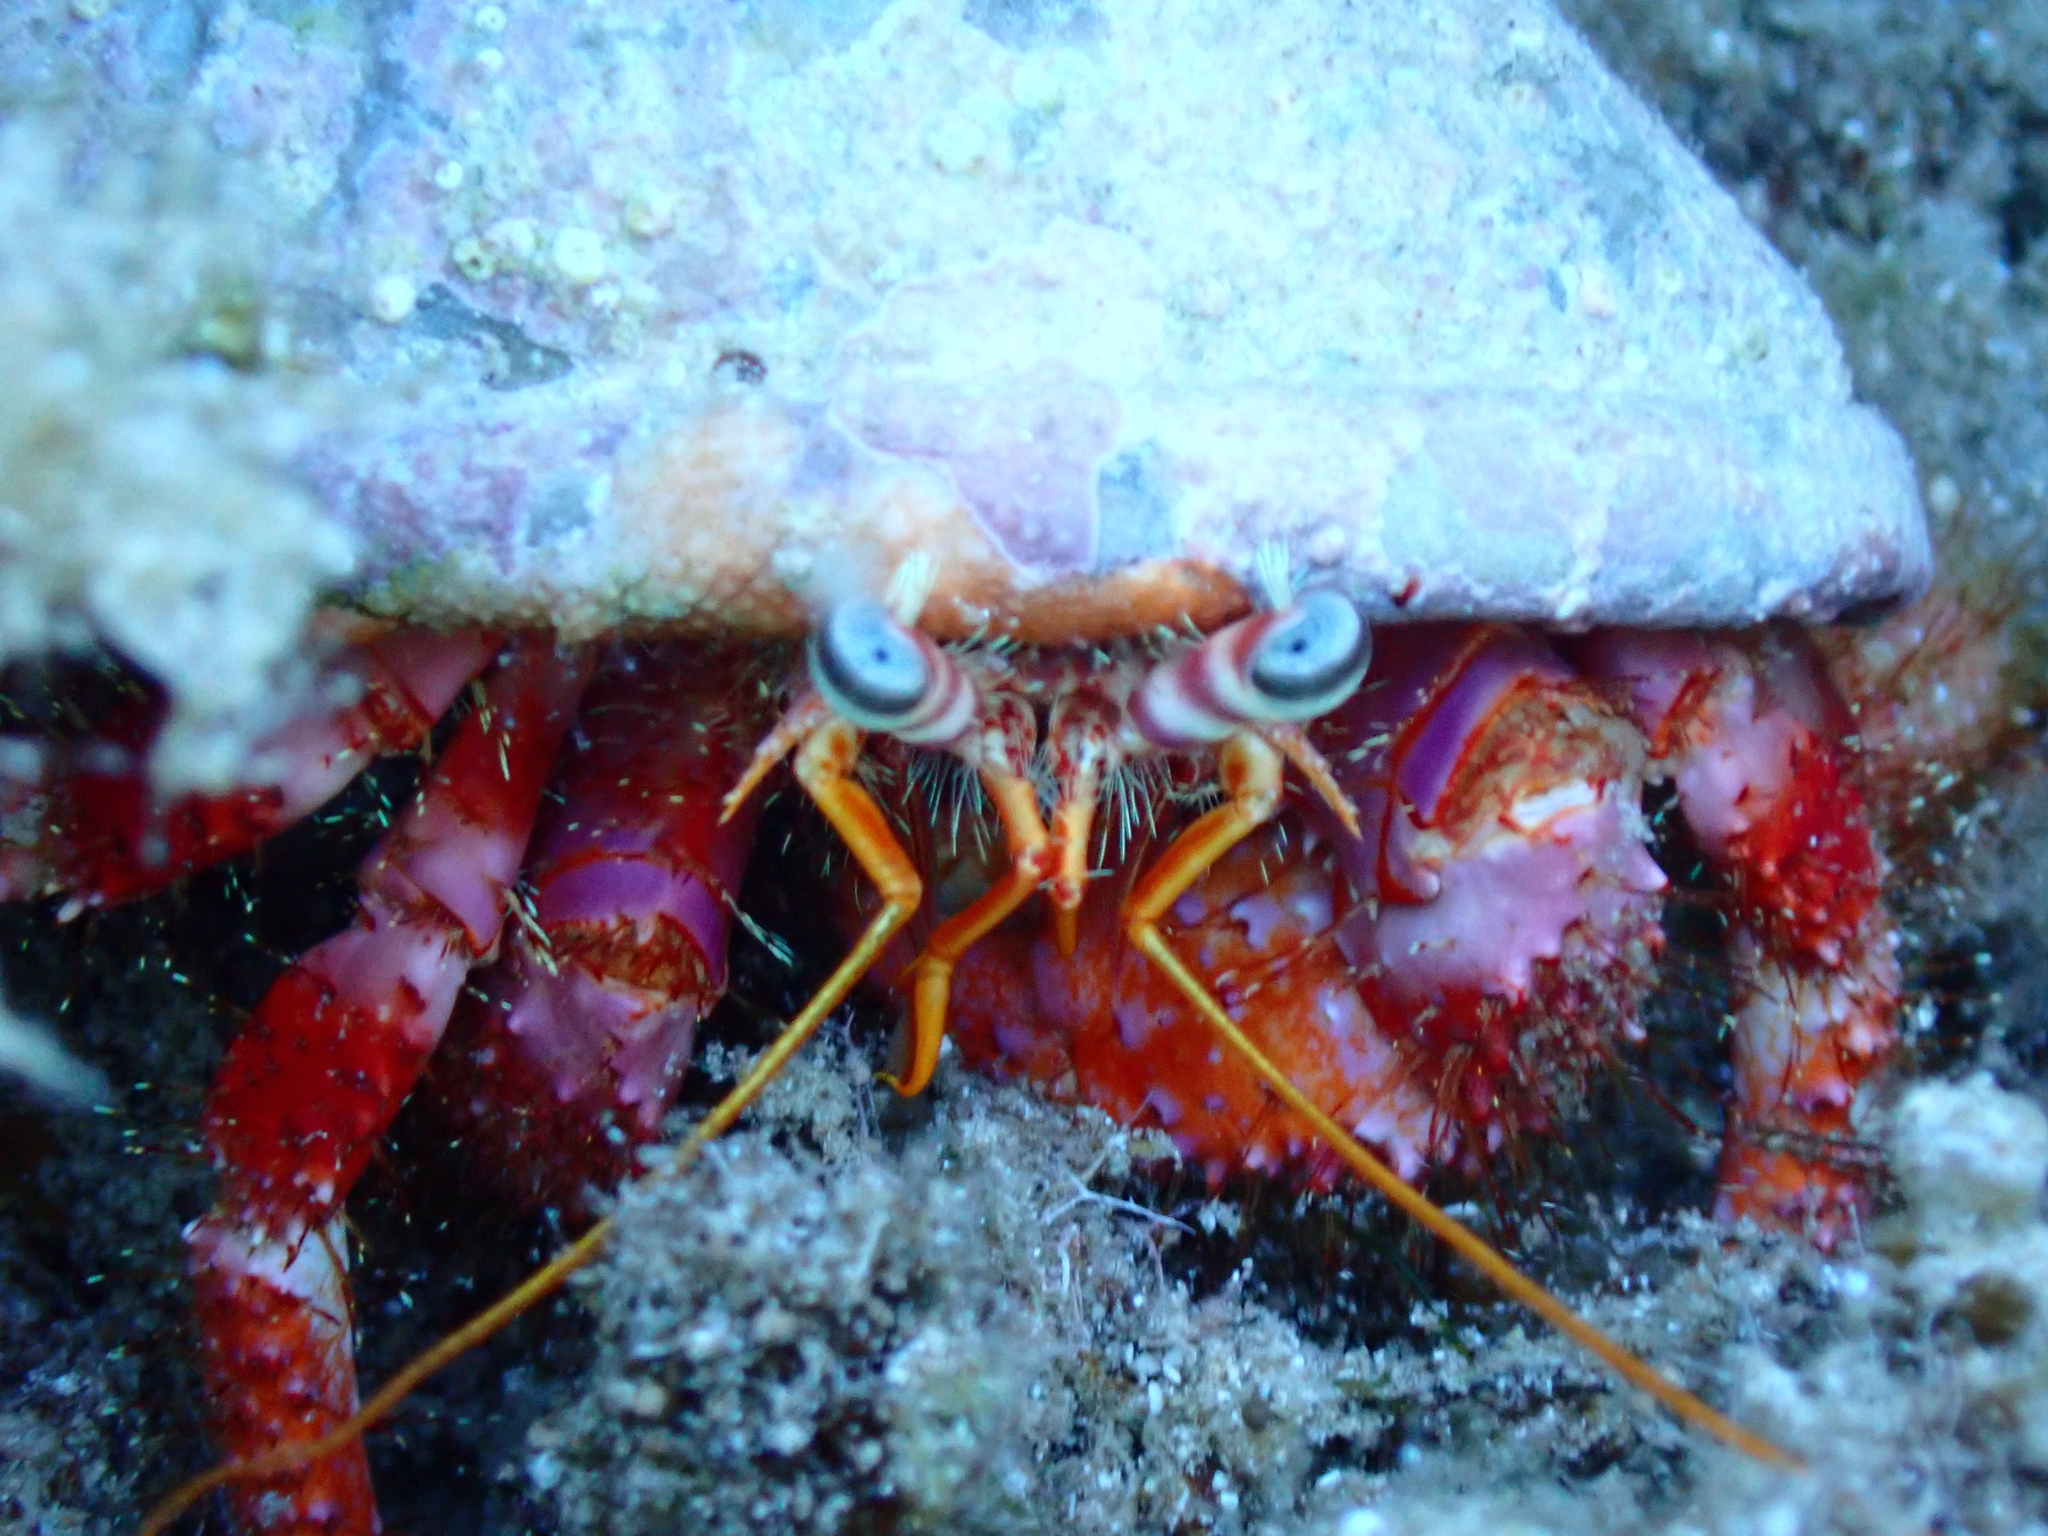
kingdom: Animalia
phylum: Arthropoda
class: Malacostraca
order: Decapoda
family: Diogenidae
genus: Dardanus
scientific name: Dardanus calidus
